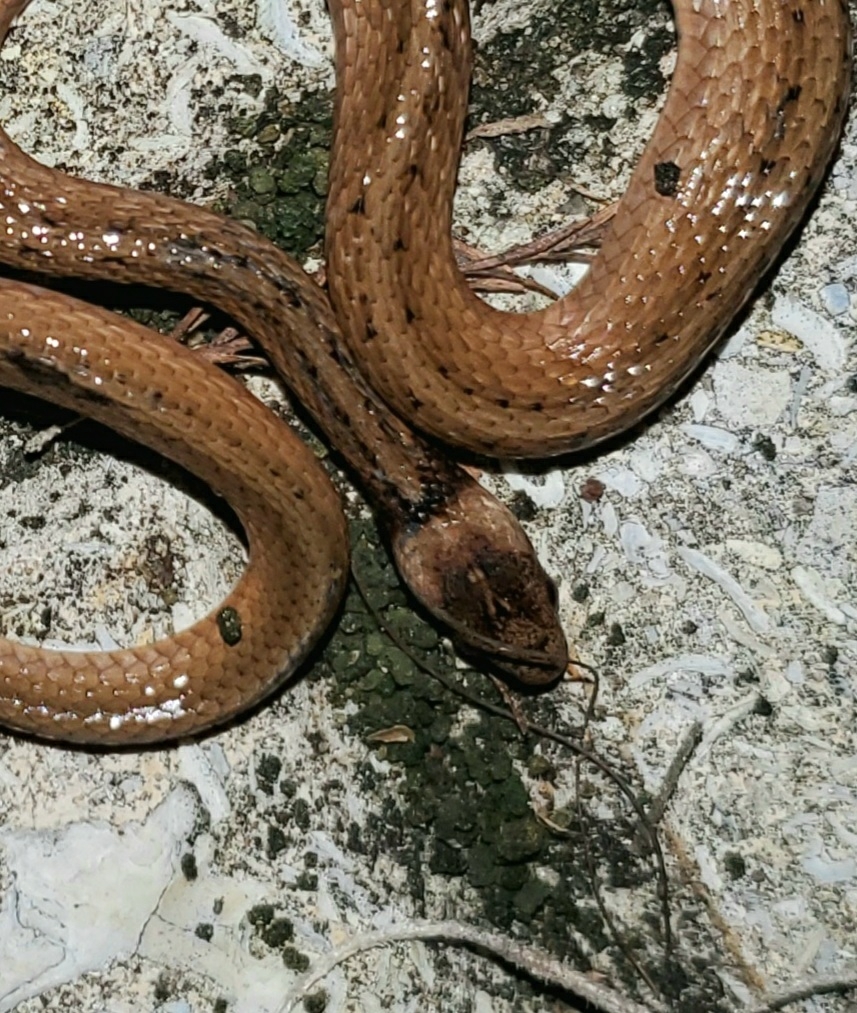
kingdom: Animalia
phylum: Chordata
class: Squamata
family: Colubridae
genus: Storeria
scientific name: Storeria victa
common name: Florida brown snake
